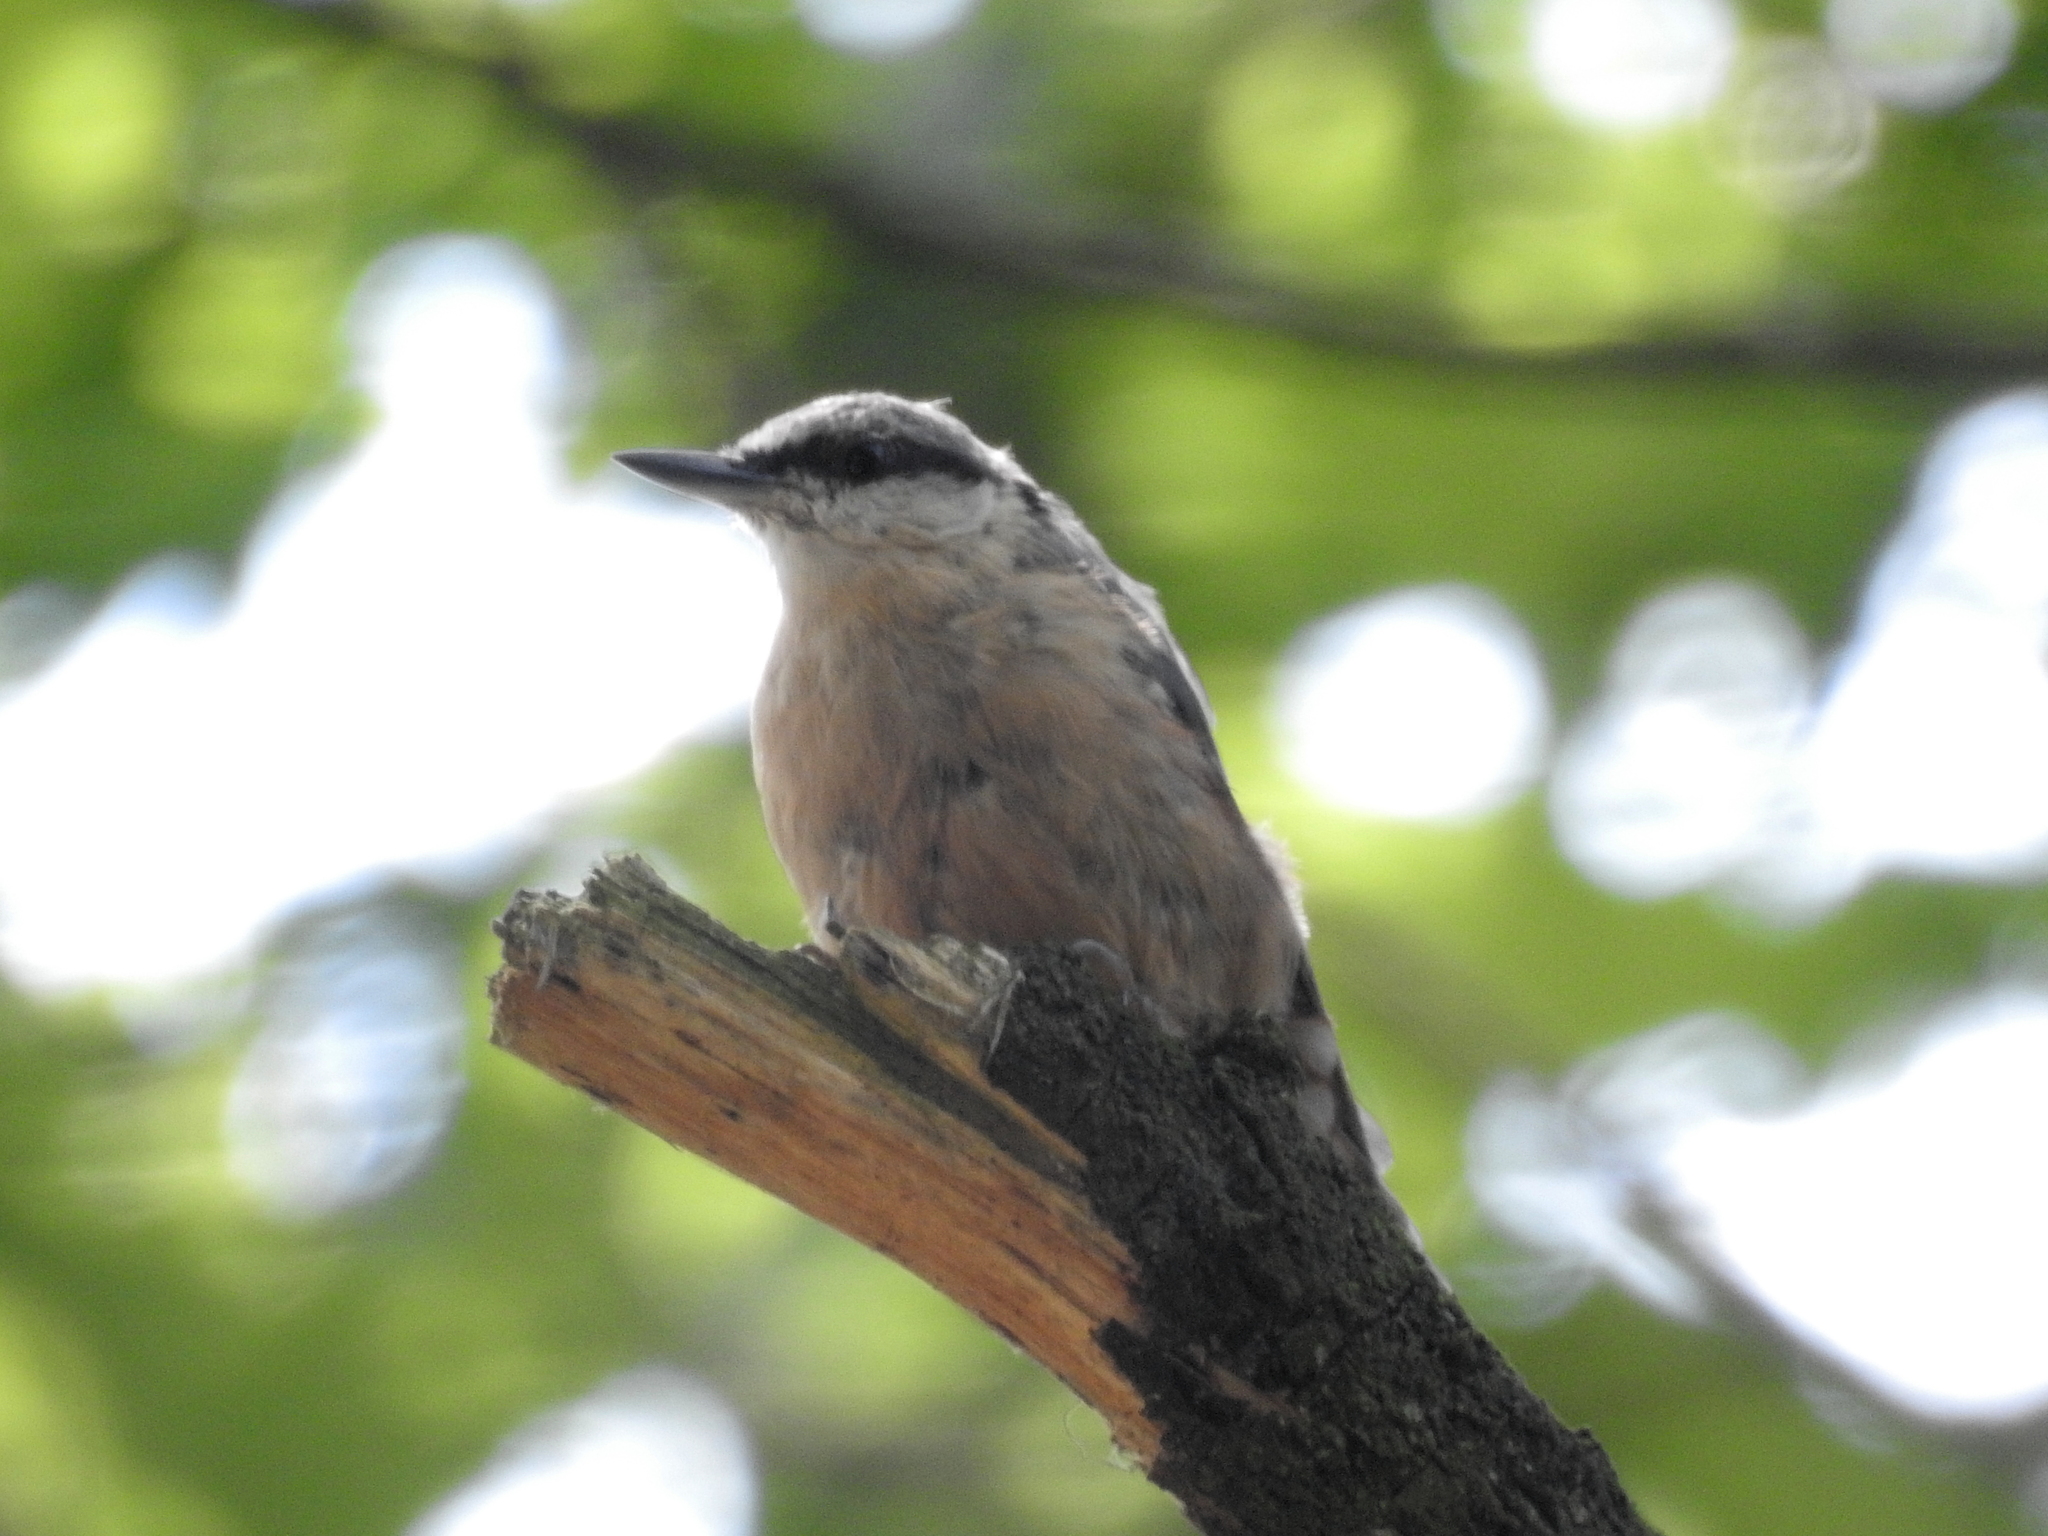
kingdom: Animalia
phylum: Chordata
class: Aves
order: Passeriformes
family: Sittidae
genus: Sitta
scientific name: Sitta europaea
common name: Eurasian nuthatch
